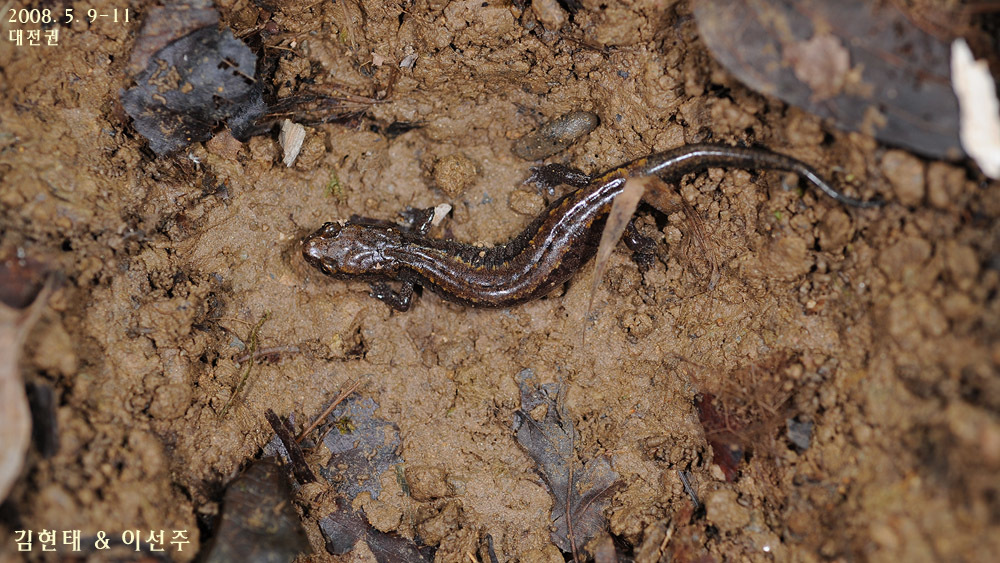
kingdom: Animalia
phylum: Chordata
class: Amphibia
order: Caudata
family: Plethodontidae
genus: Karsenia
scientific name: Karsenia koreana
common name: Korean crevice salamander
